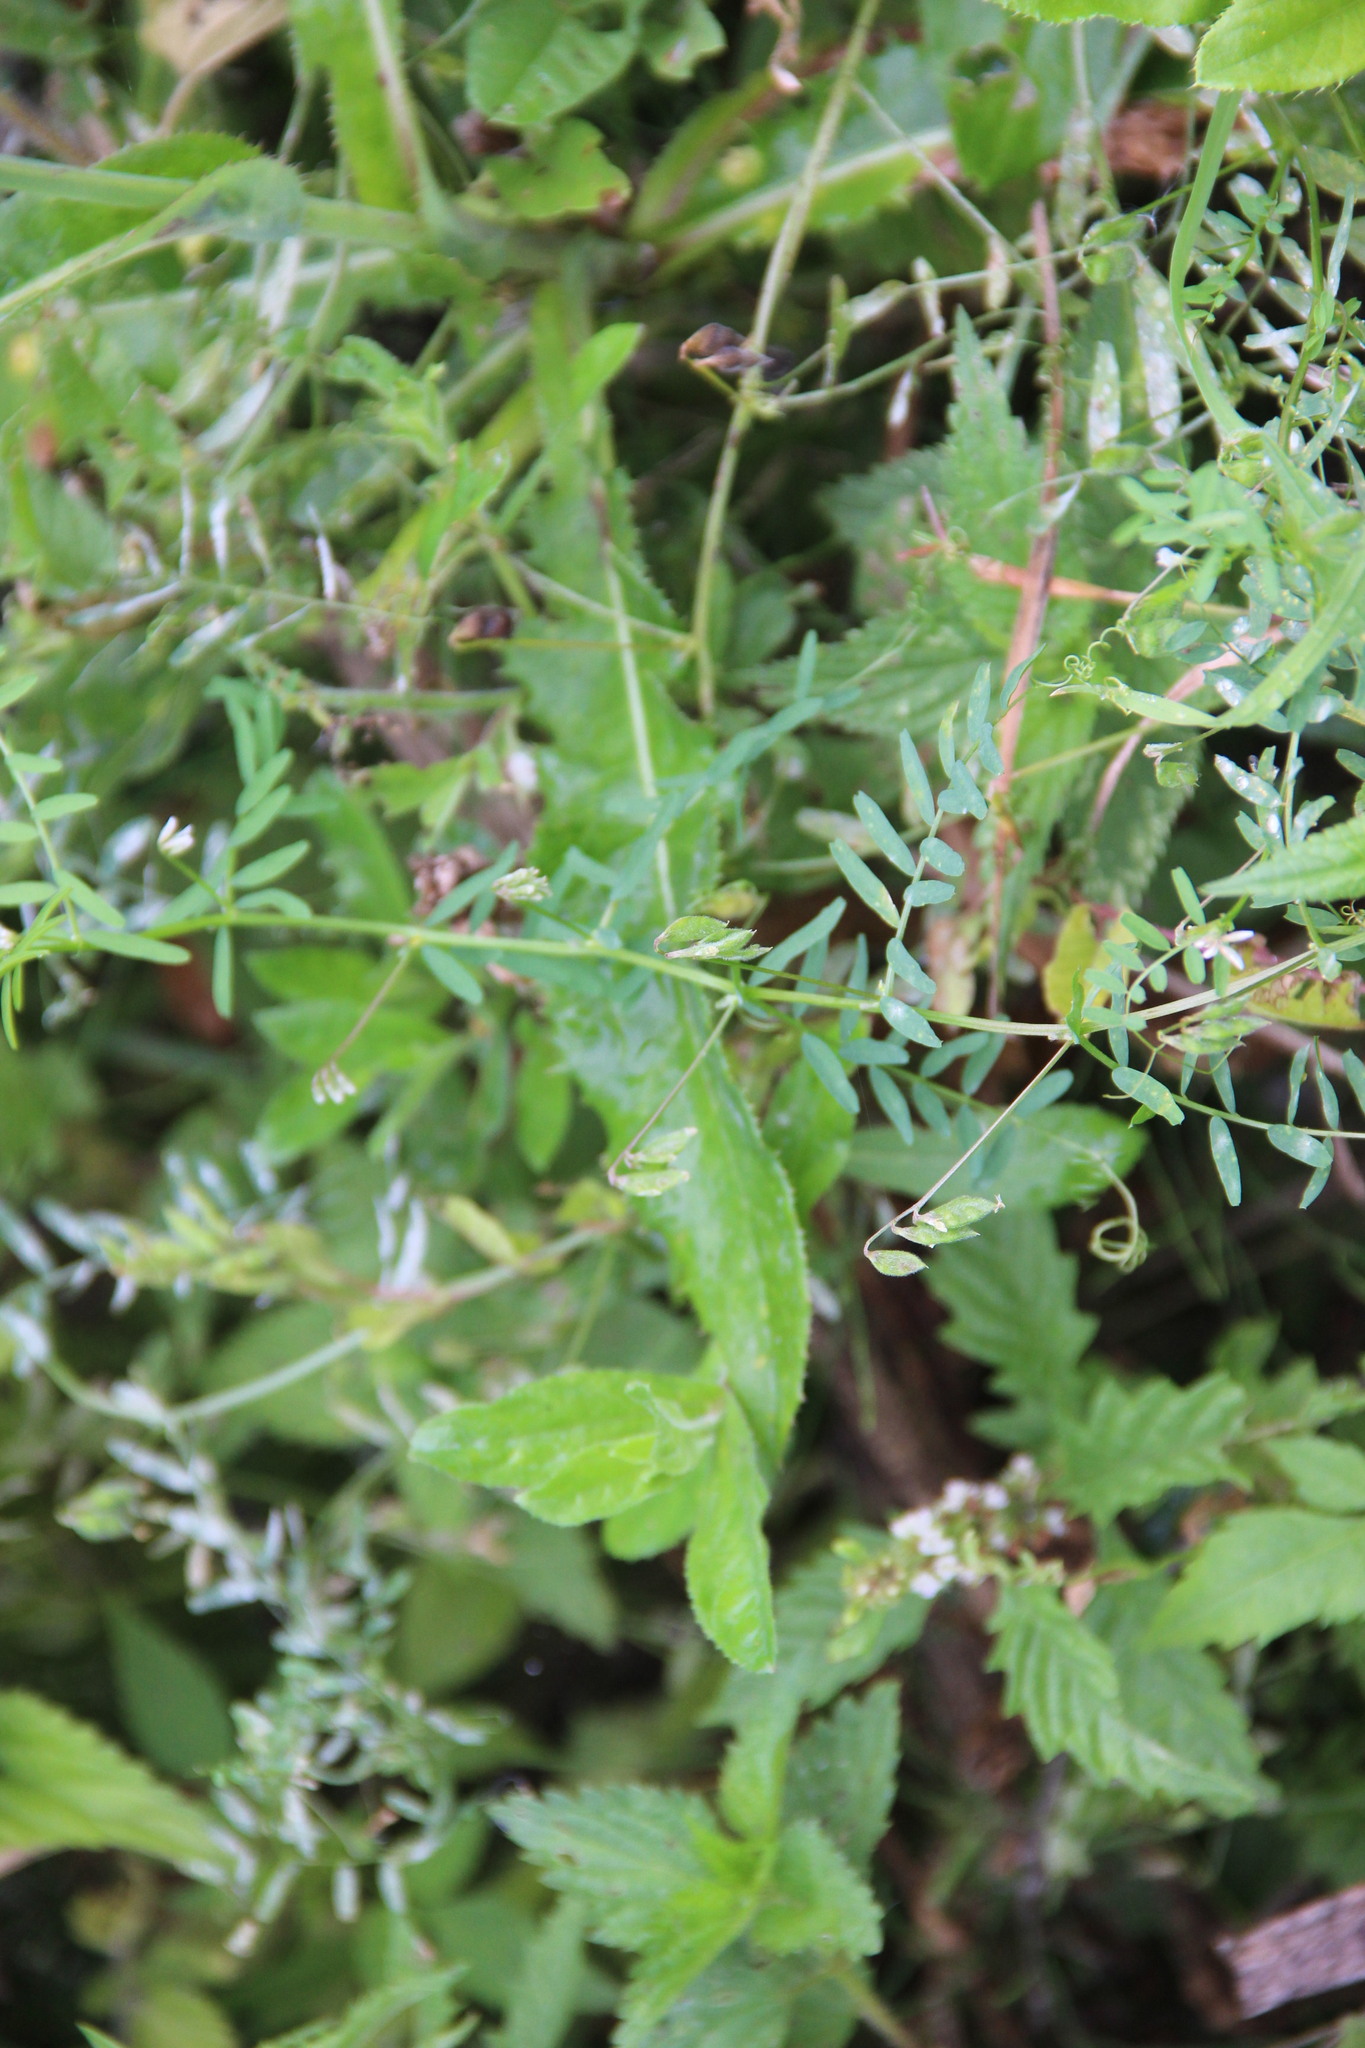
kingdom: Plantae
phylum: Tracheophyta
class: Magnoliopsida
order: Fabales
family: Fabaceae
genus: Vicia
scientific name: Vicia hirsuta
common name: Tiny vetch
